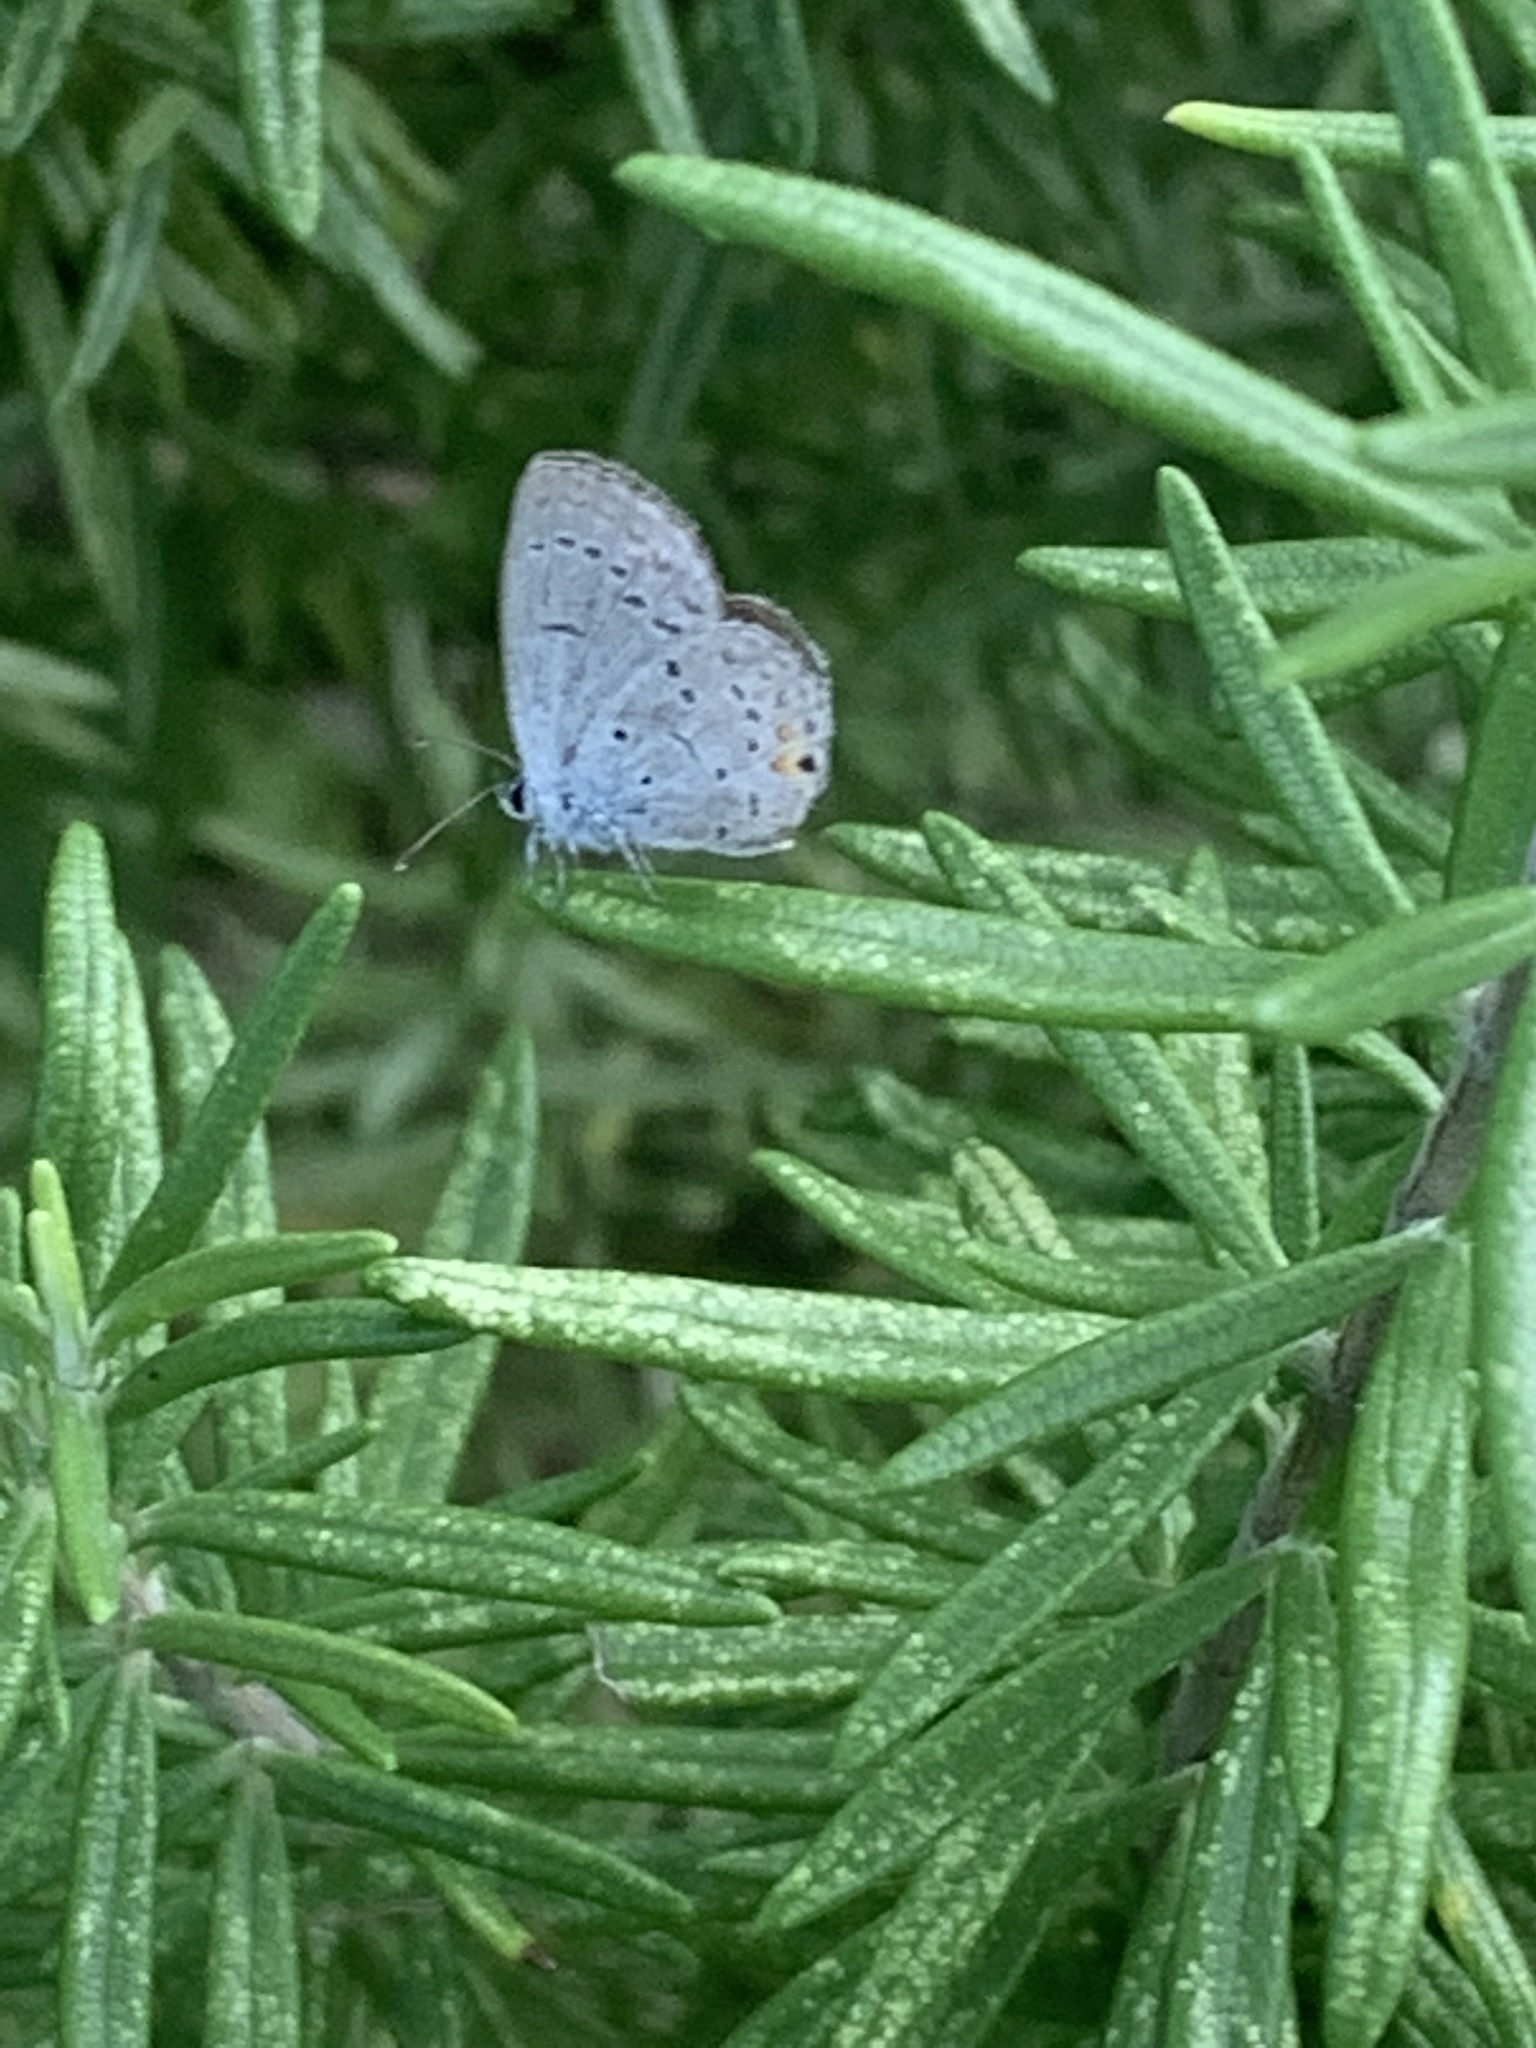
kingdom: Animalia
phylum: Arthropoda
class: Insecta
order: Lepidoptera
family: Lycaenidae
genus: Elkalyce
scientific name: Elkalyce comyntas
